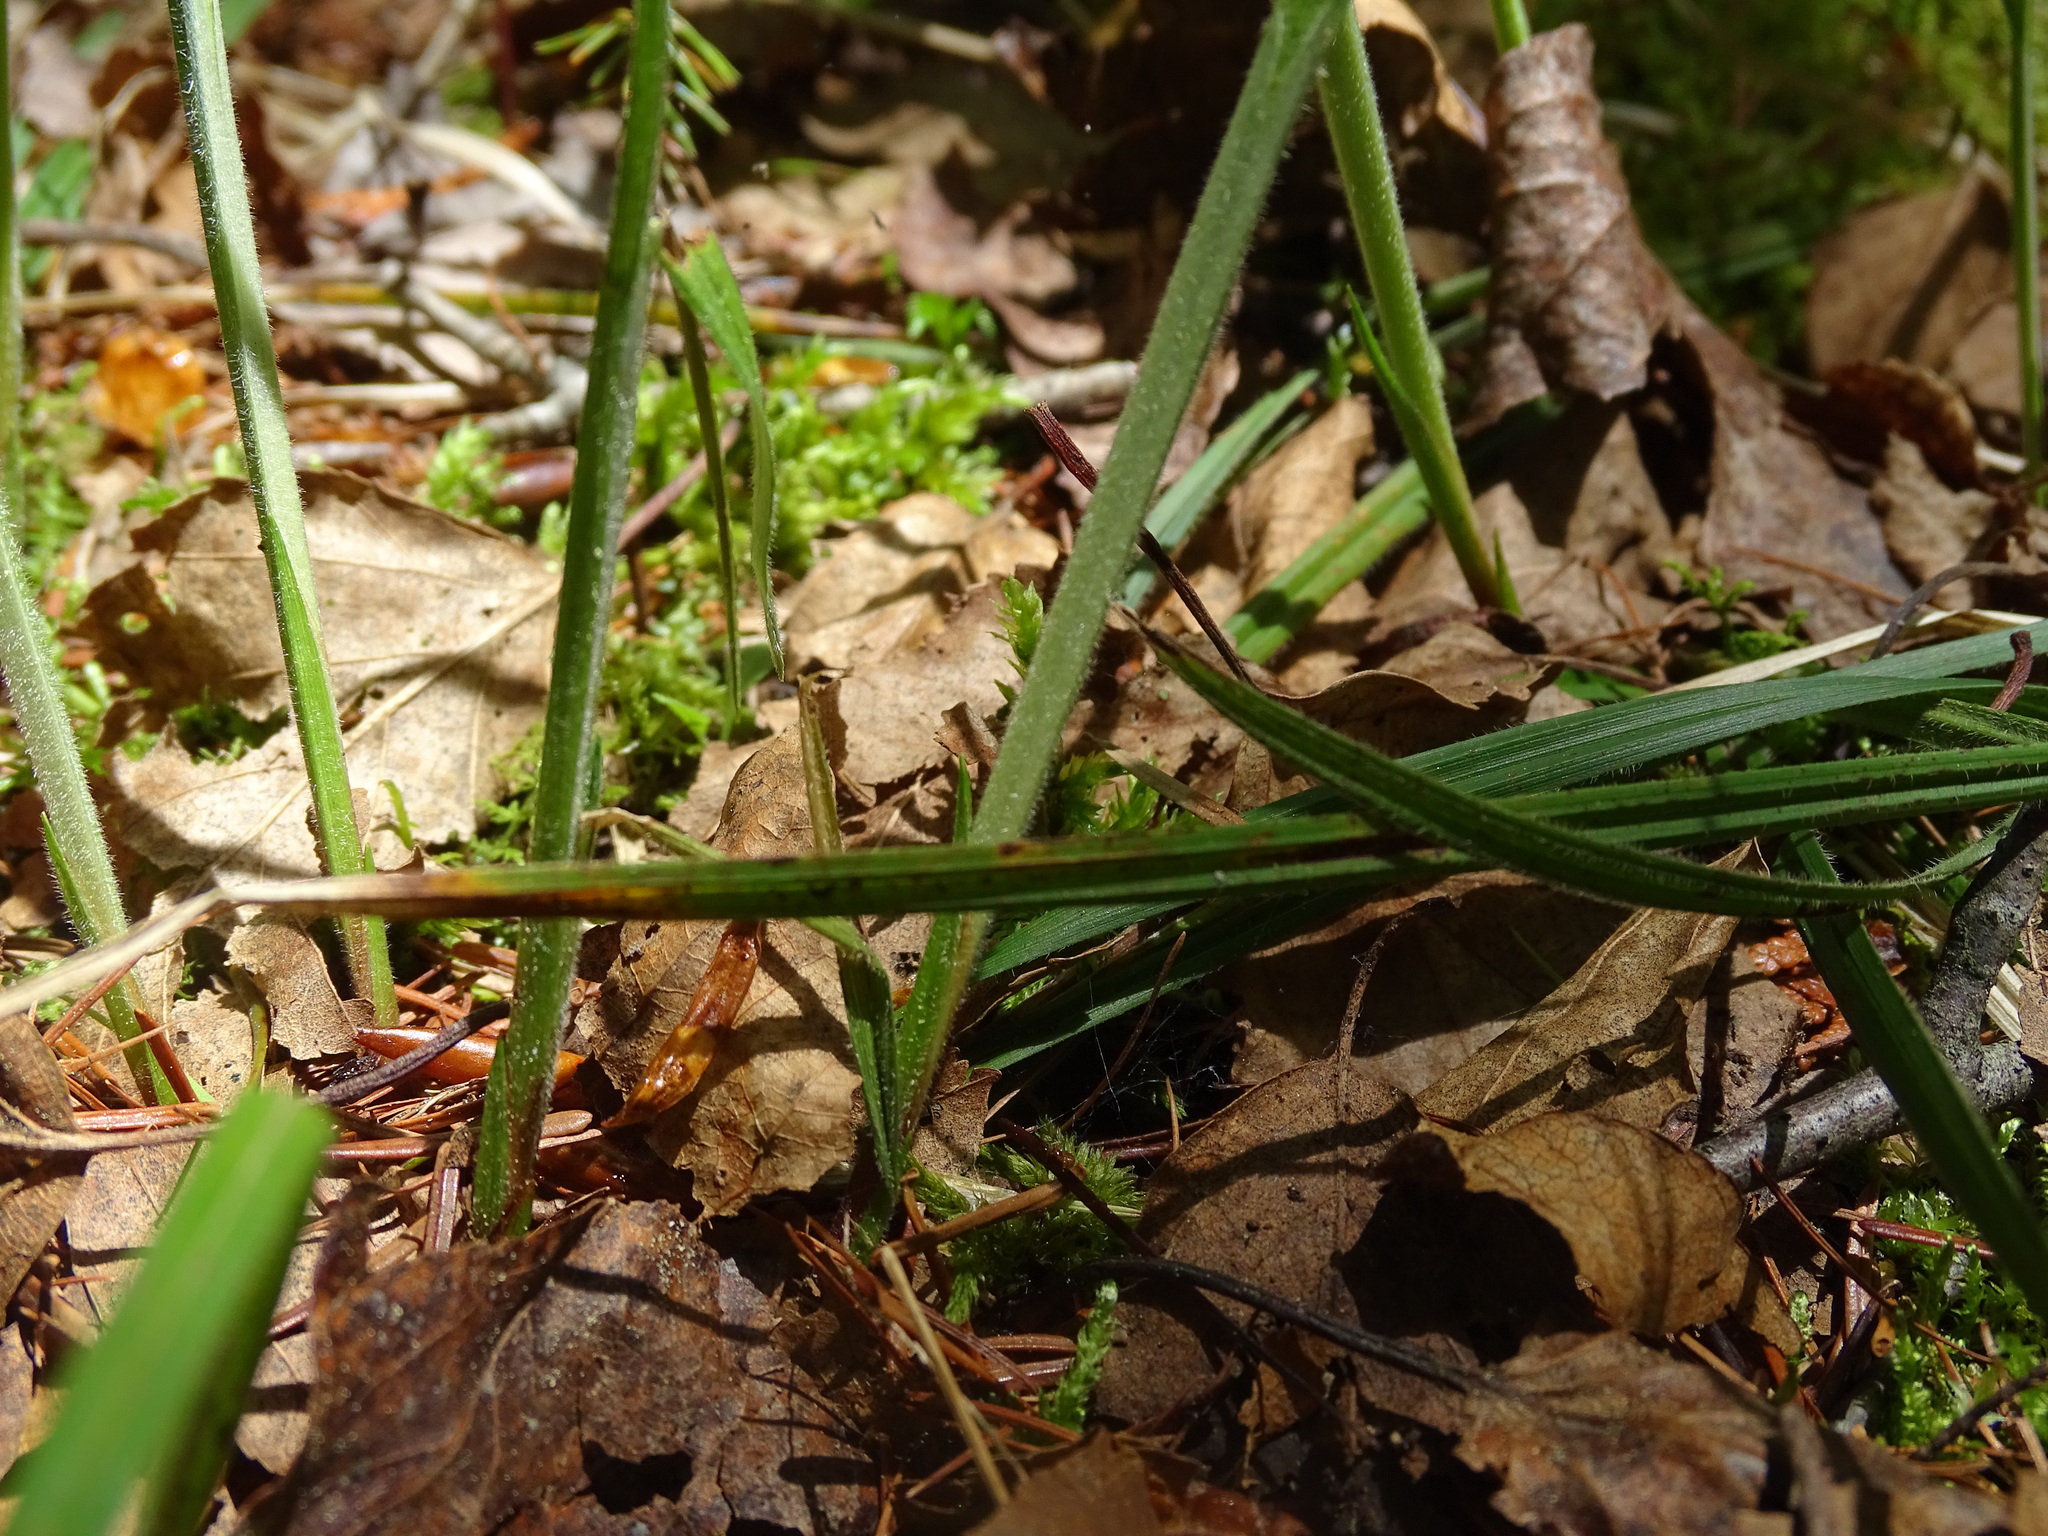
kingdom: Plantae
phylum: Tracheophyta
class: Liliopsida
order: Poales
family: Cyperaceae
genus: Carex
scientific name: Carex castanea
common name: Chestnut sedge
